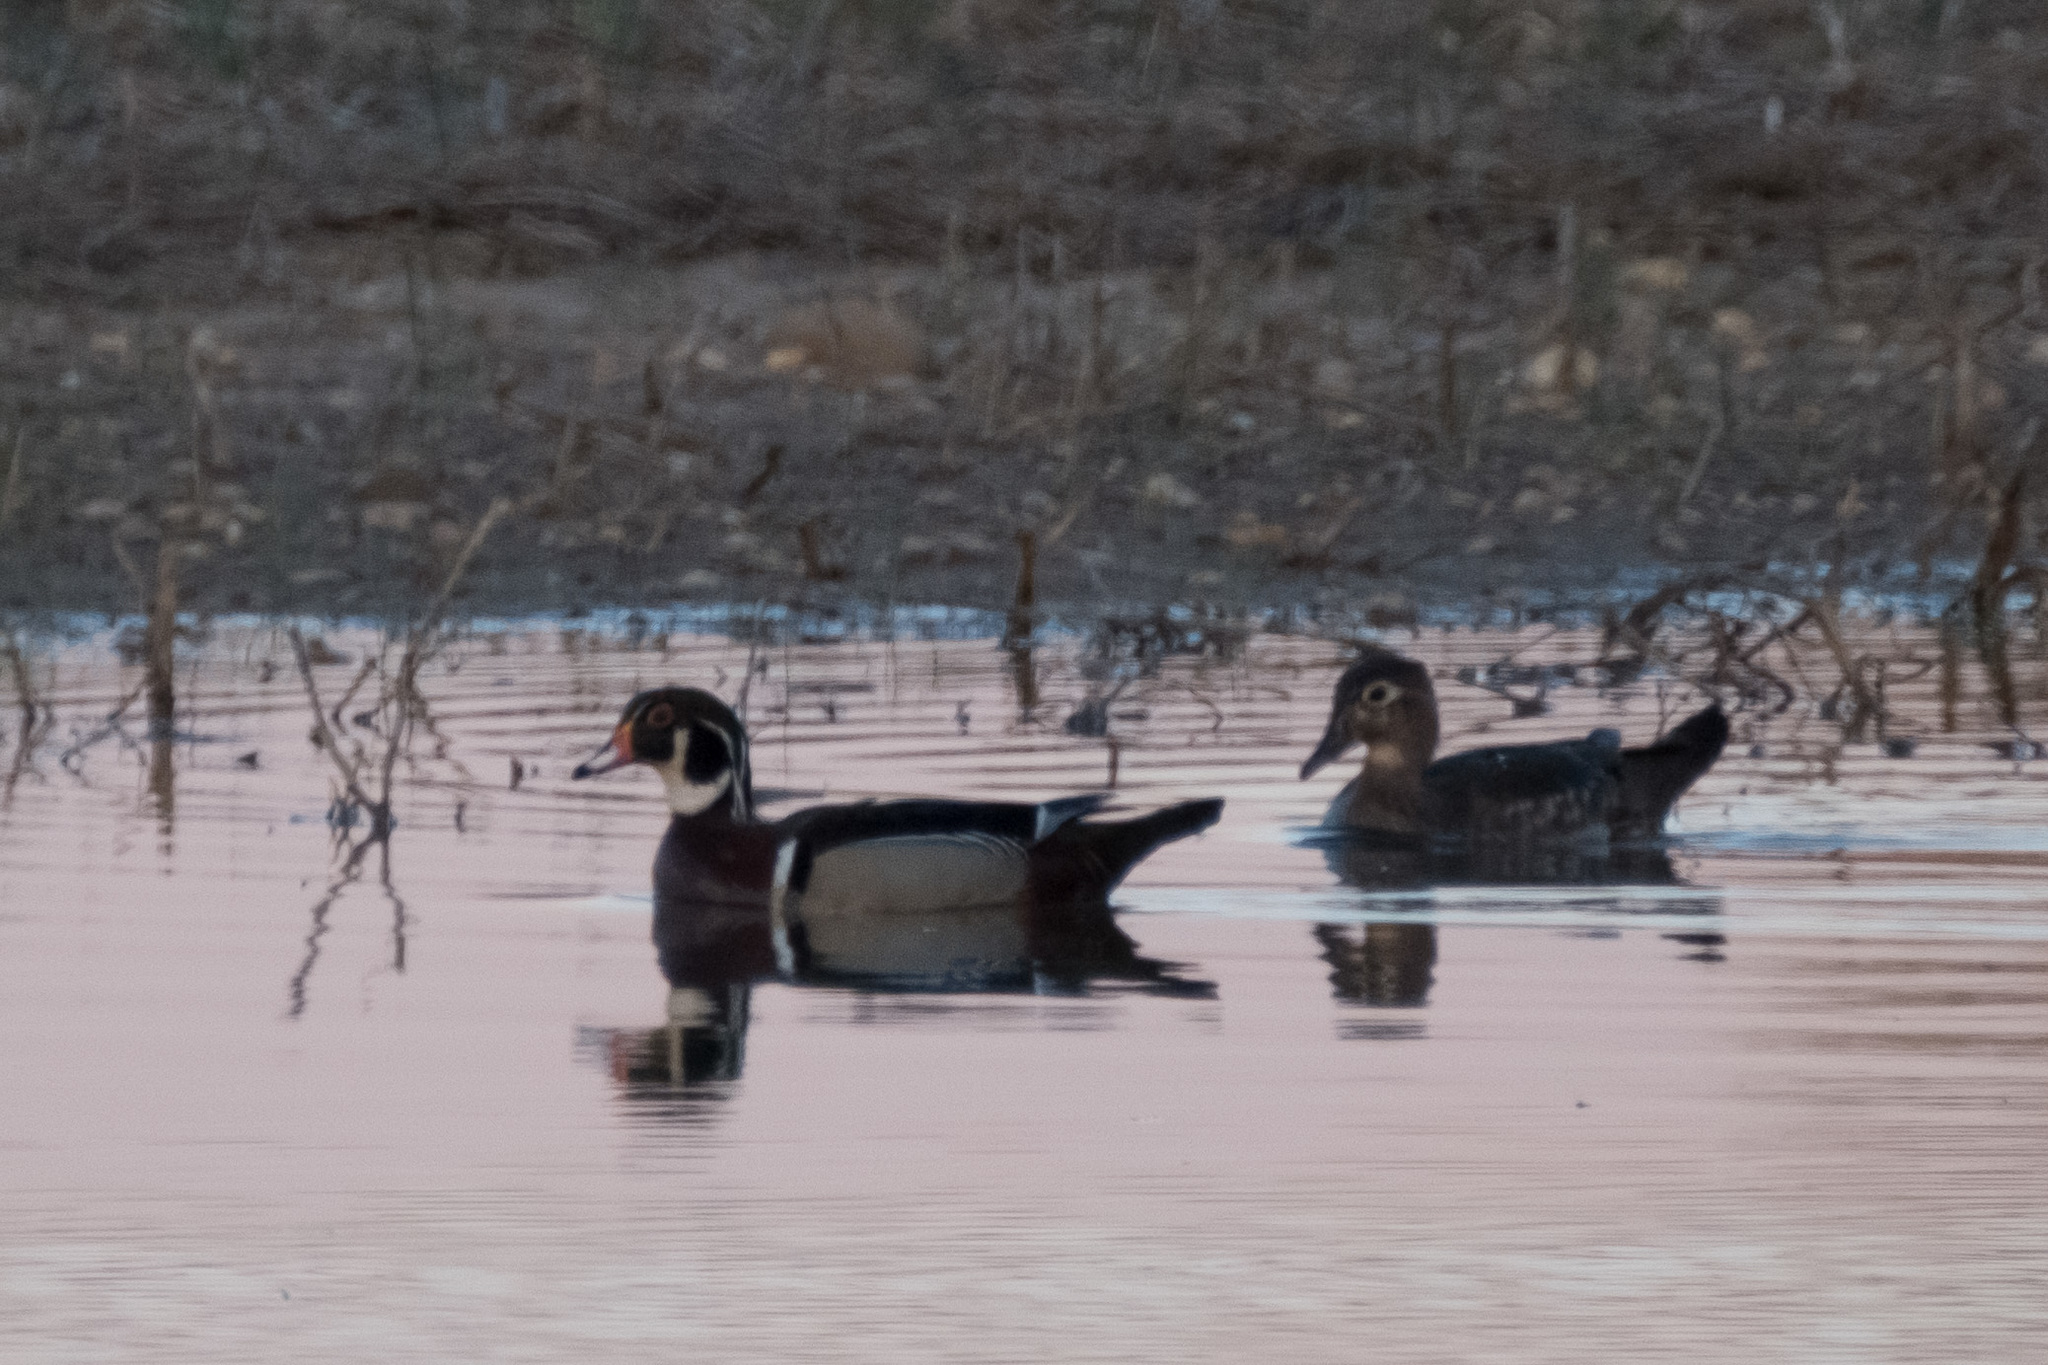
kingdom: Animalia
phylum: Chordata
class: Aves
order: Anseriformes
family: Anatidae
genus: Aix
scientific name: Aix sponsa
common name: Wood duck
